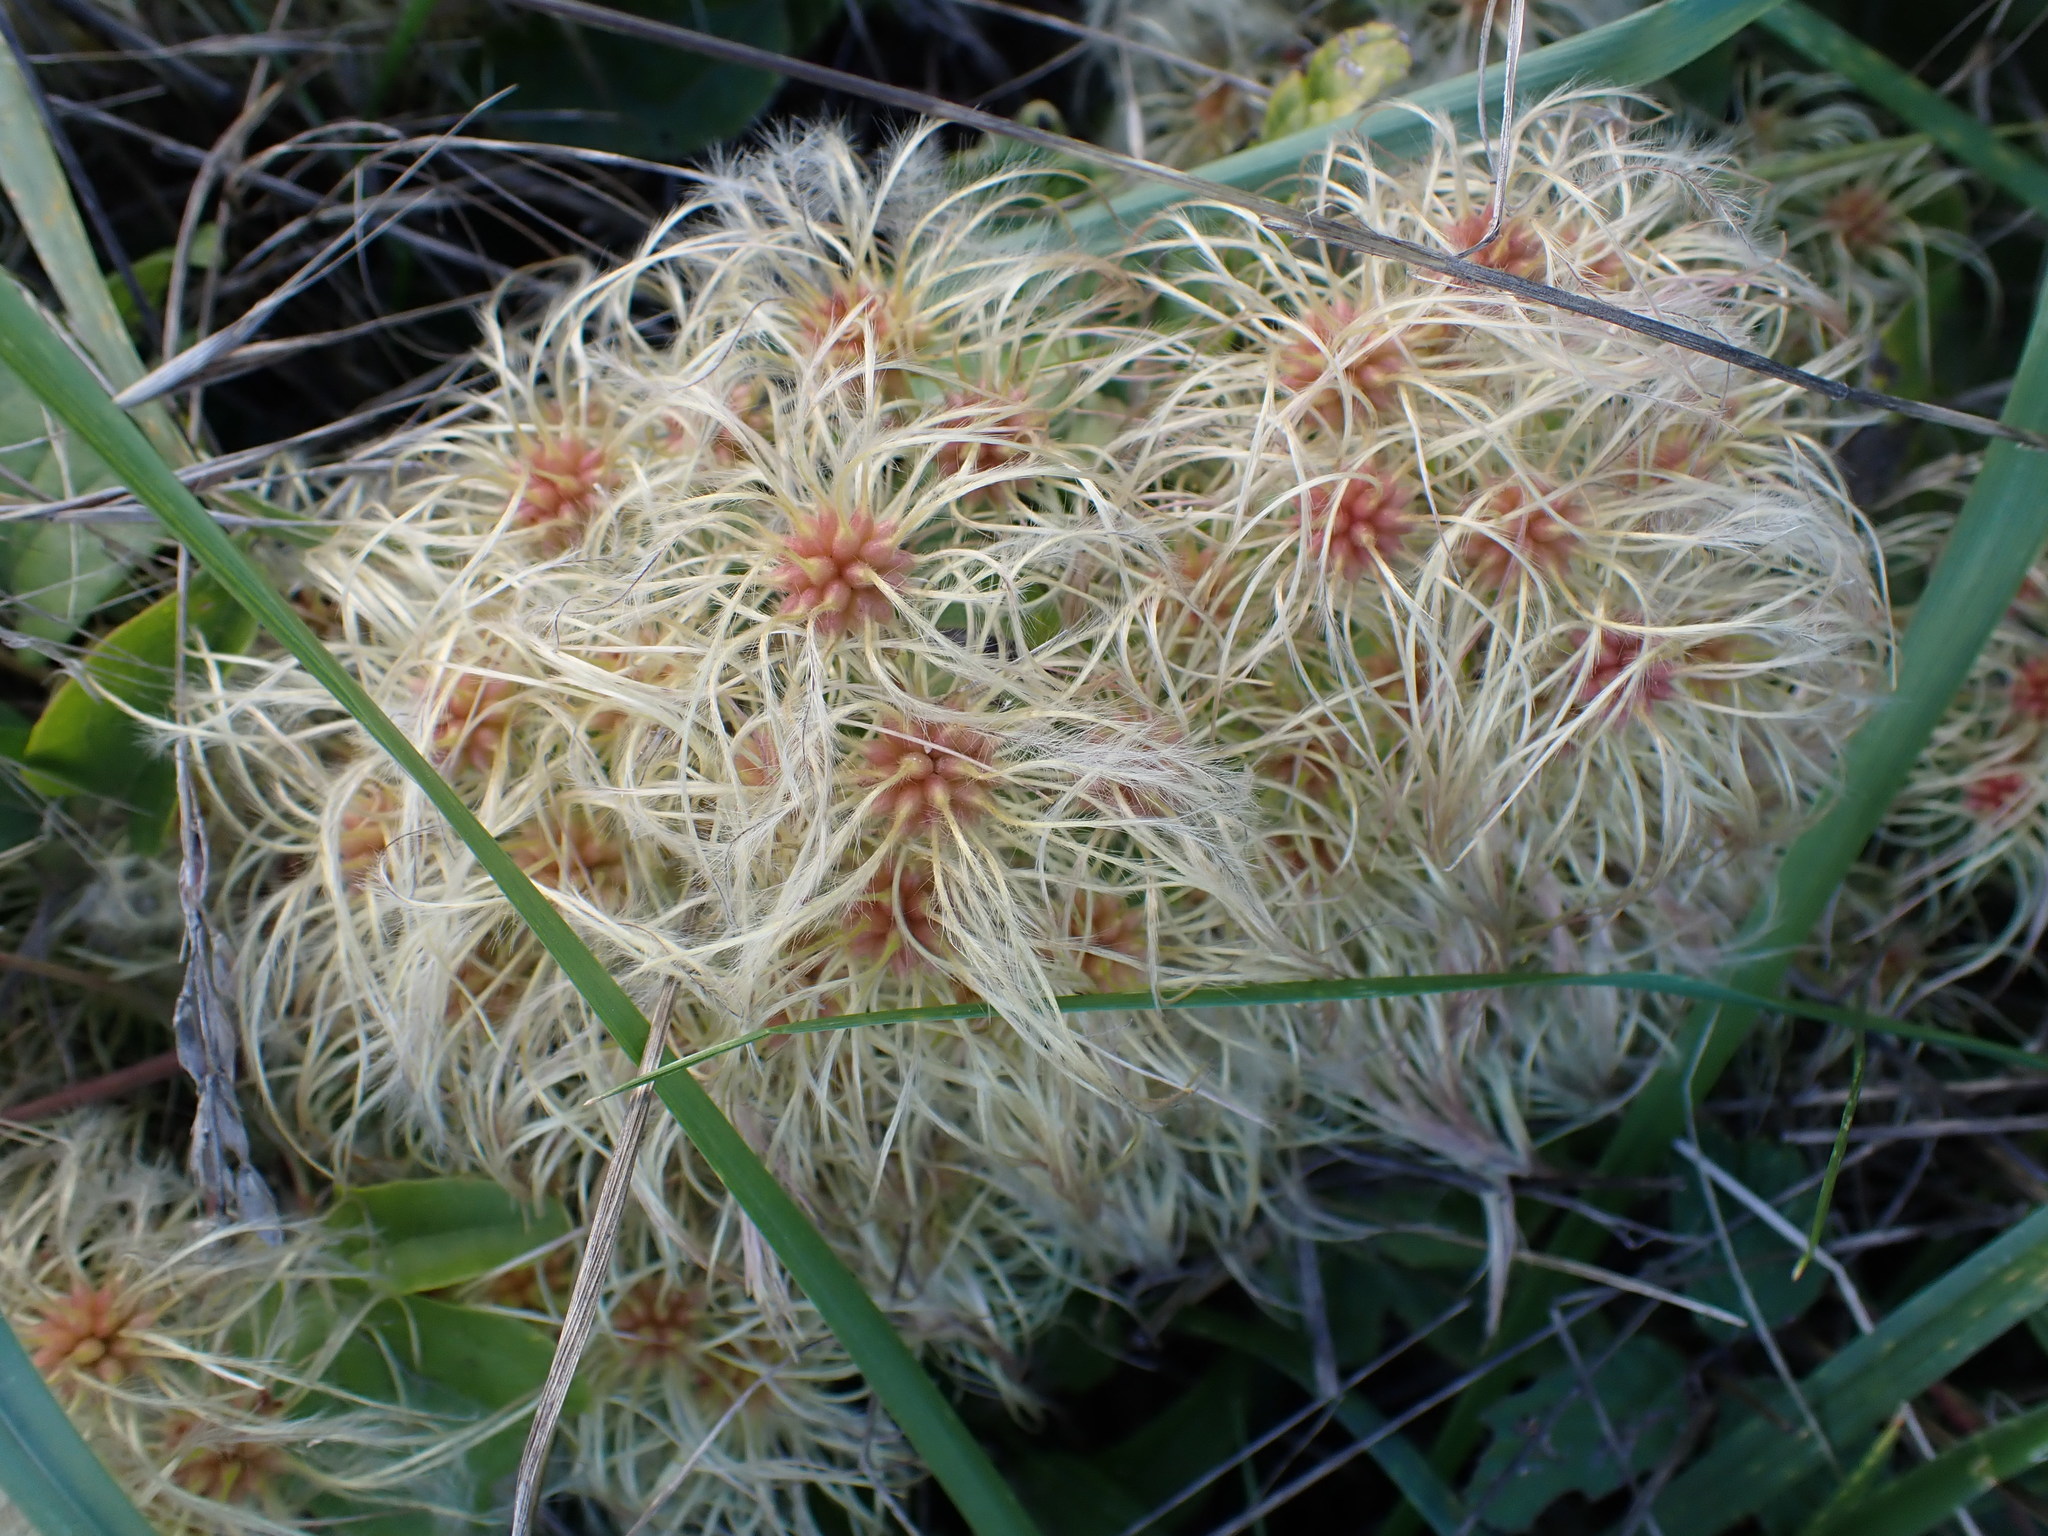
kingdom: Plantae
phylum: Tracheophyta
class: Magnoliopsida
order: Ranunculales
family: Ranunculaceae
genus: Clematis
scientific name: Clematis vitalba
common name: Evergreen clematis
